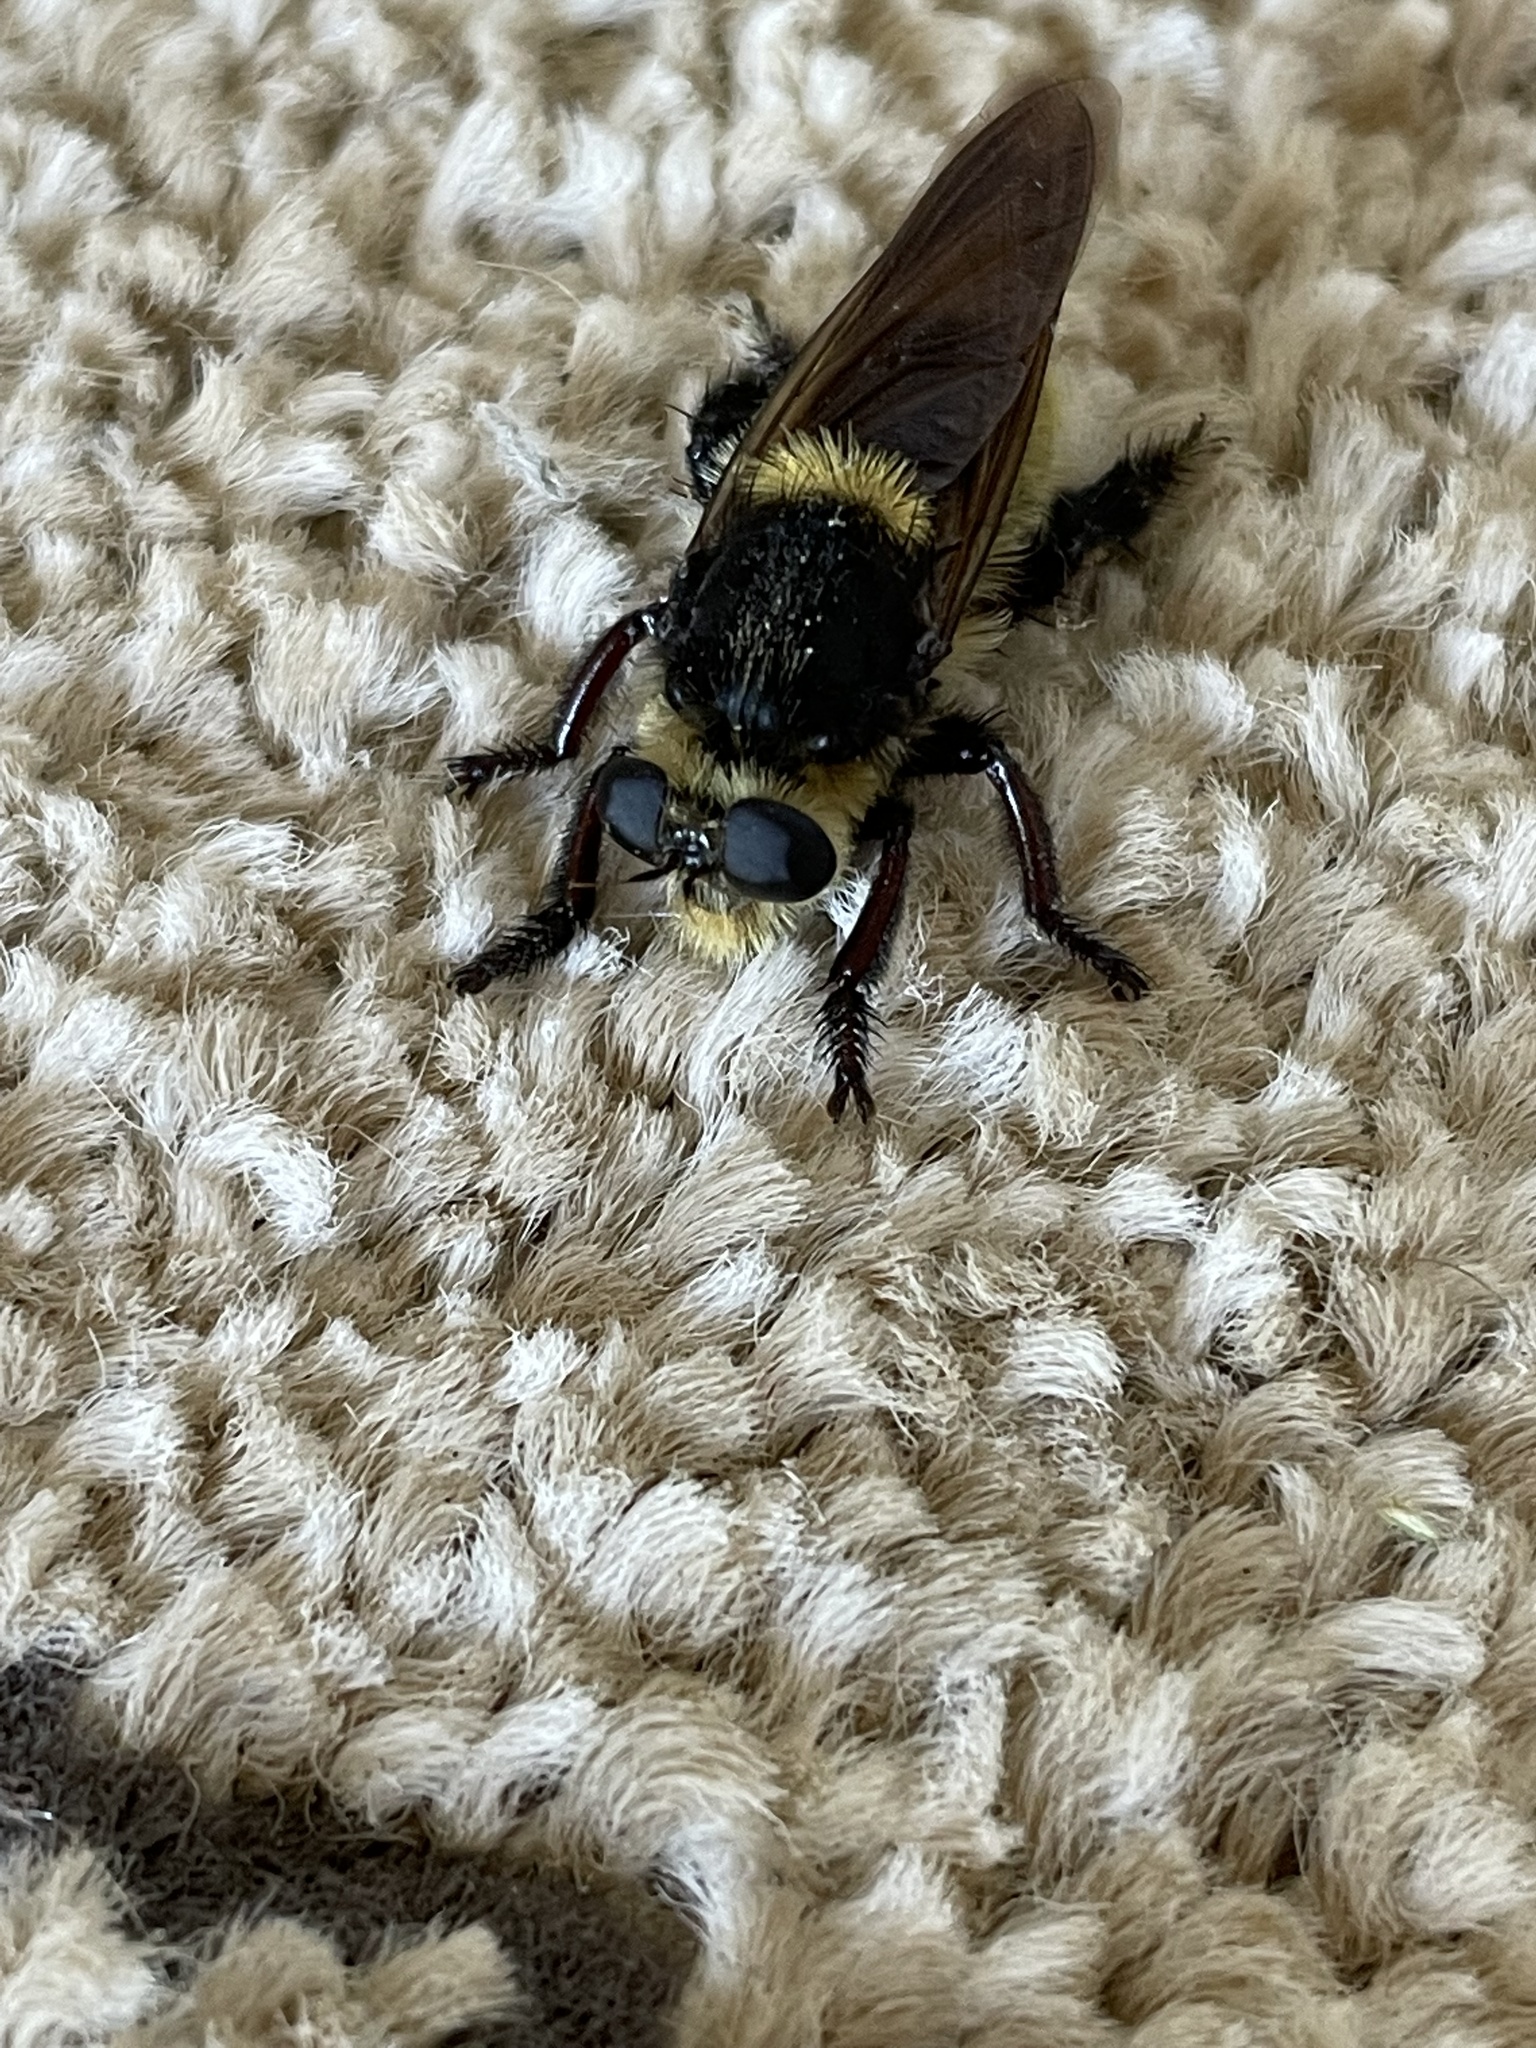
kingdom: Animalia
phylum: Arthropoda
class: Insecta
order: Diptera
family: Asilidae
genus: Mallophora
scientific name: Mallophora fautrix
